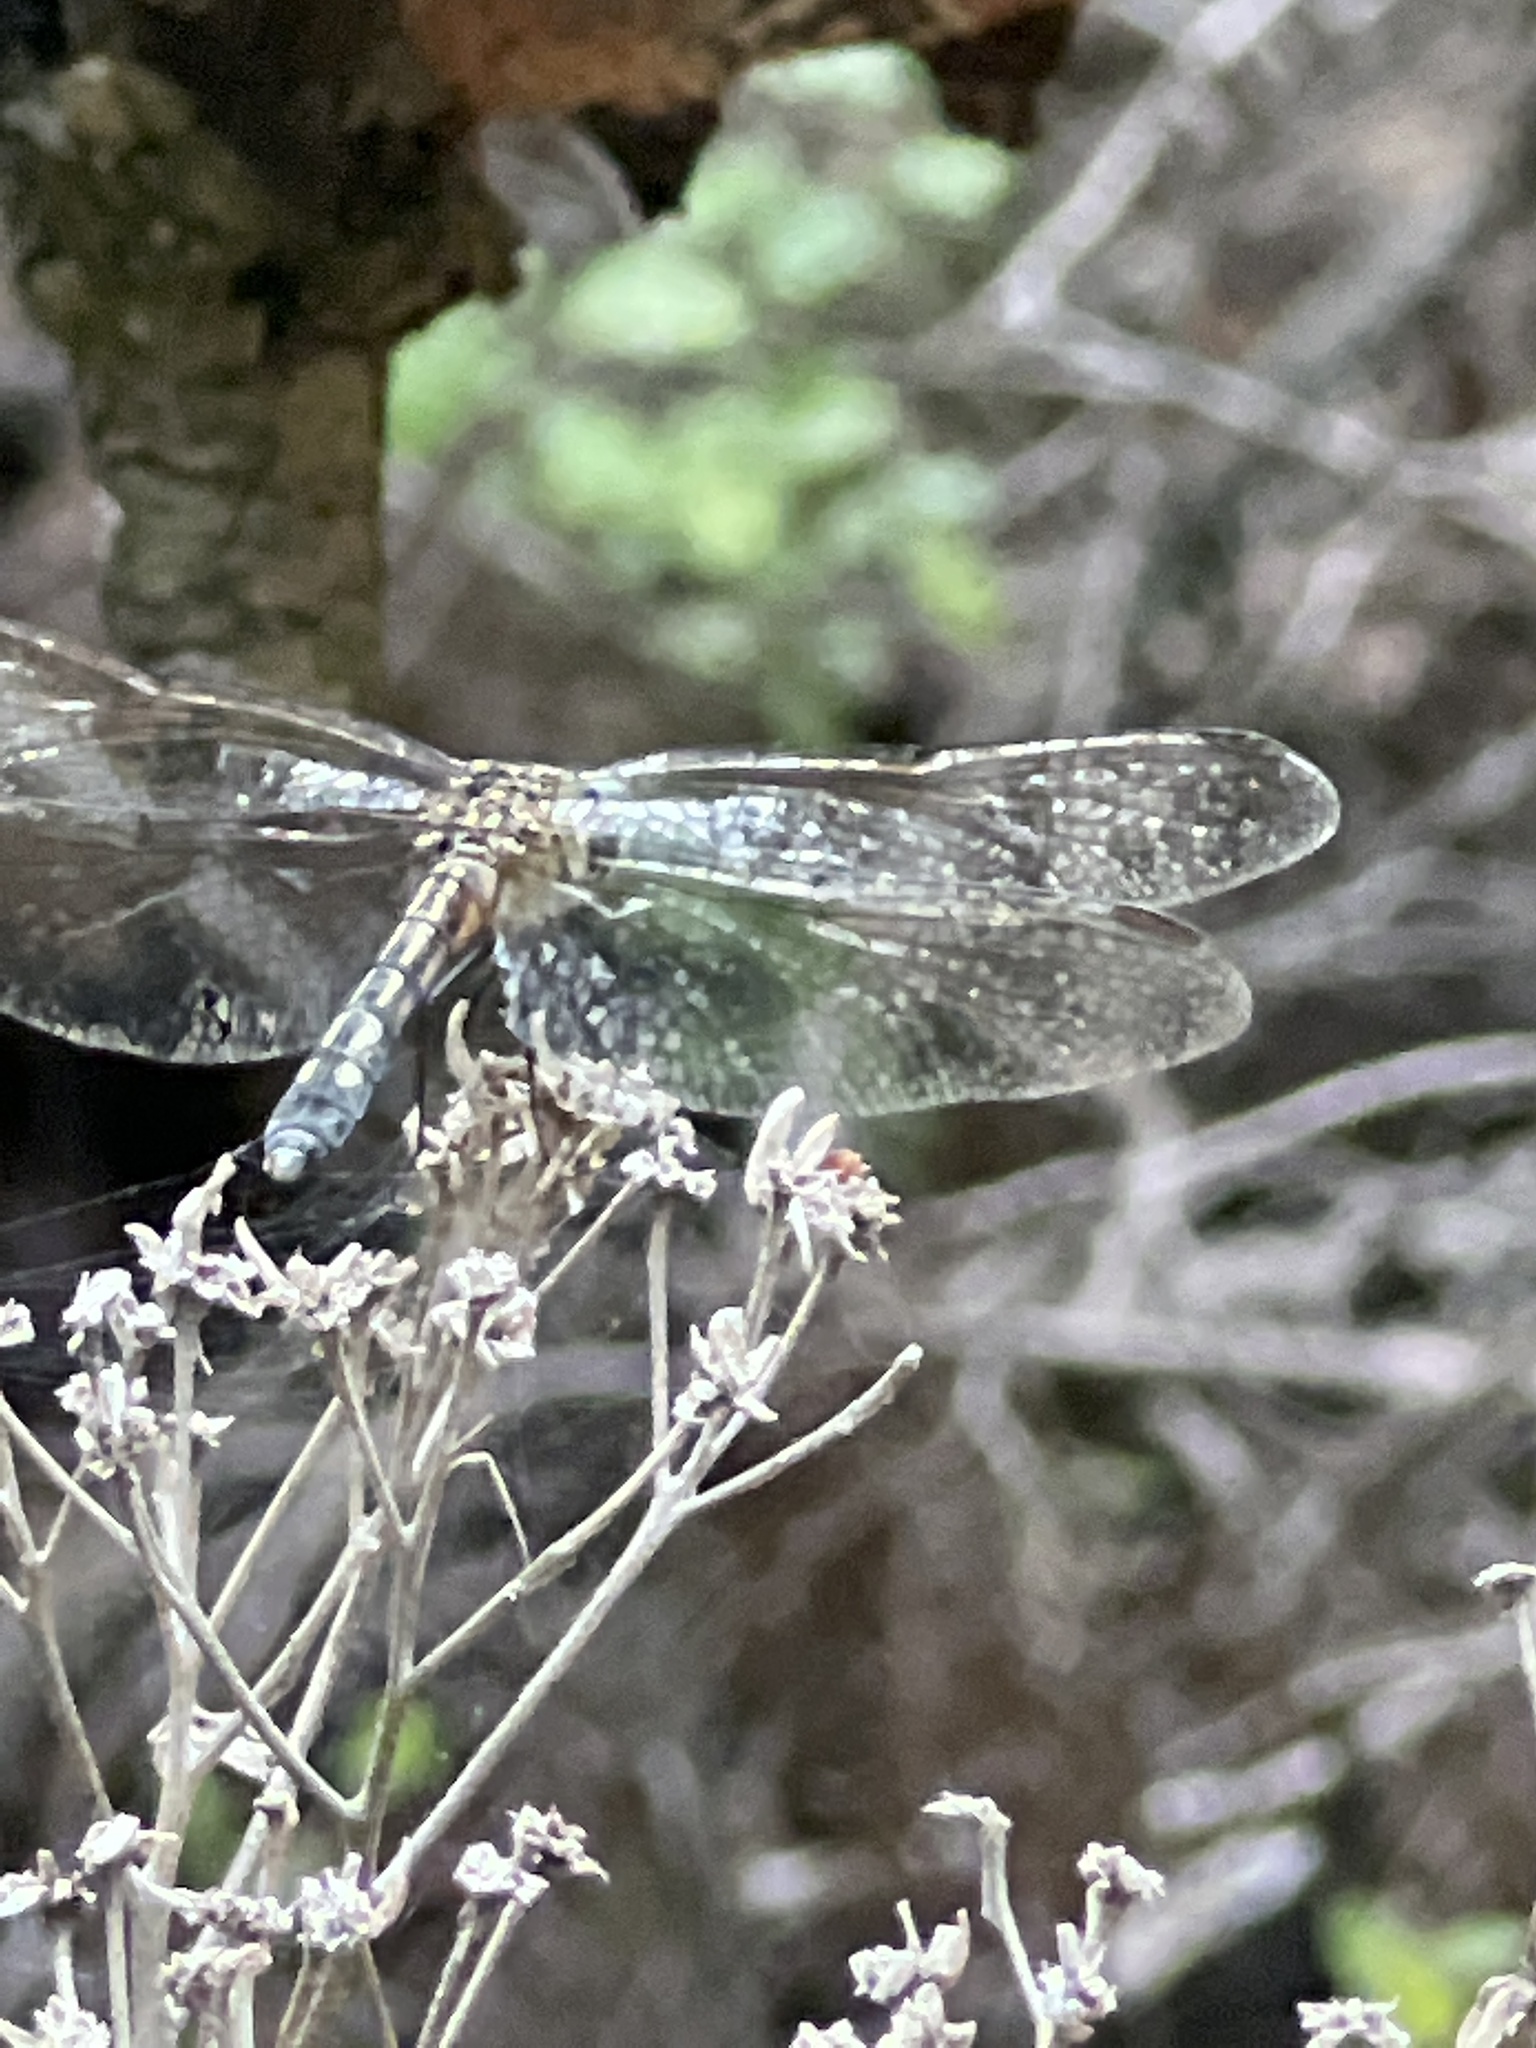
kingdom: Animalia
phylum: Arthropoda
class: Insecta
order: Odonata
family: Libellulidae
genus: Pachydiplax
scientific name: Pachydiplax longipennis
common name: Blue dasher
